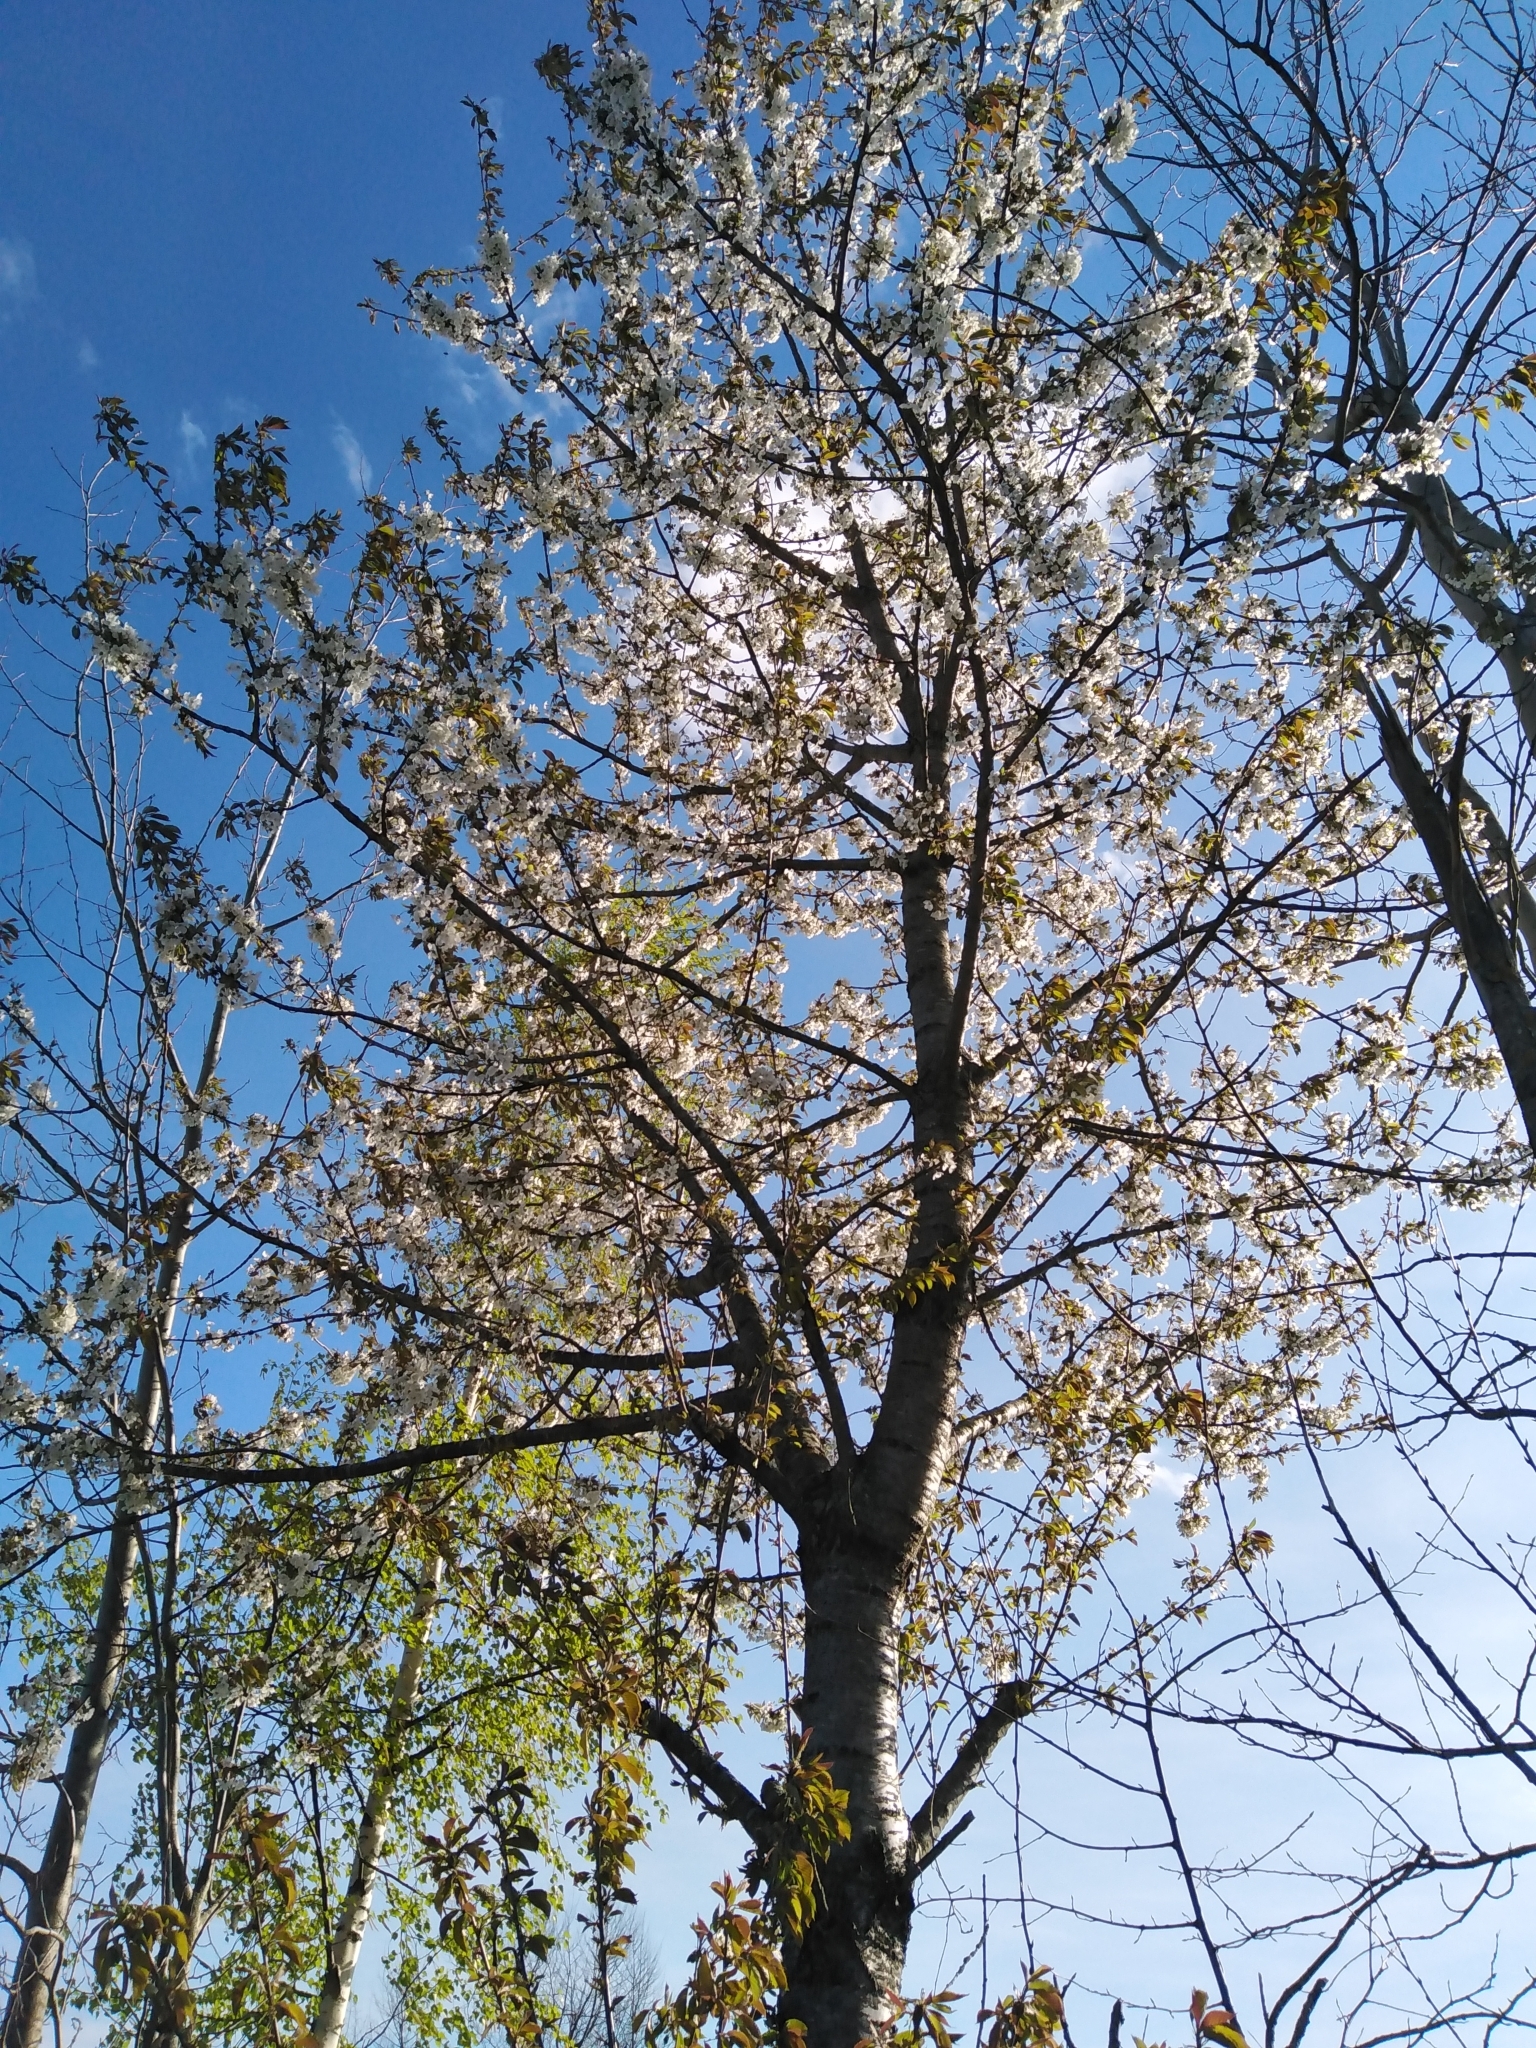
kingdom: Plantae
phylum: Tracheophyta
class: Magnoliopsida
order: Rosales
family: Rosaceae
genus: Prunus
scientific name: Prunus avium
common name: Sweet cherry
